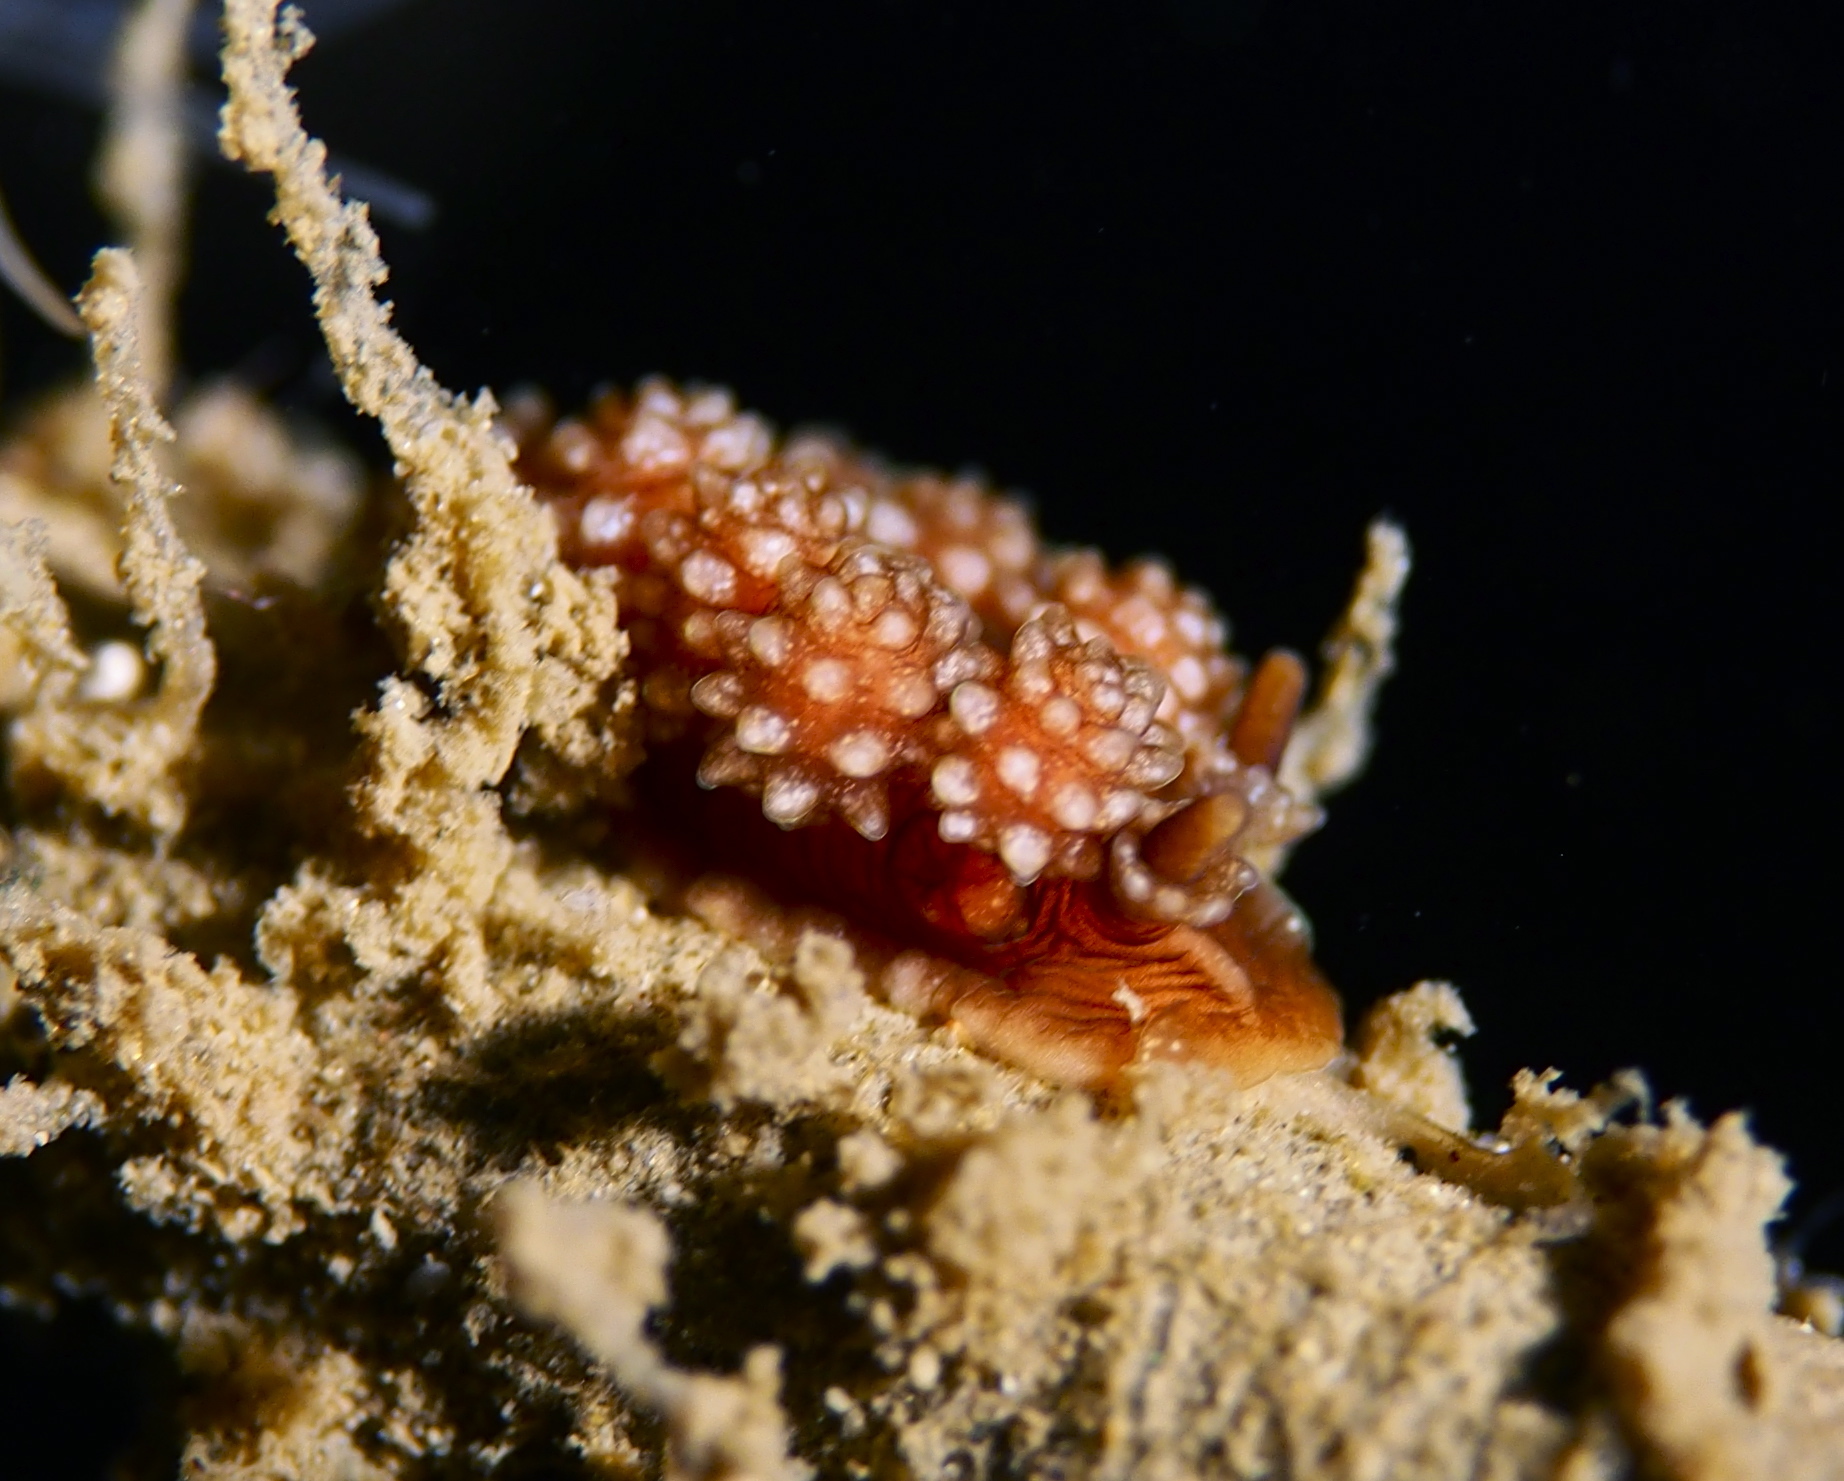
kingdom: Animalia
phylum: Mollusca
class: Gastropoda
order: Nudibranchia
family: Dotidae
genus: Doto
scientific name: Doto fragilis
